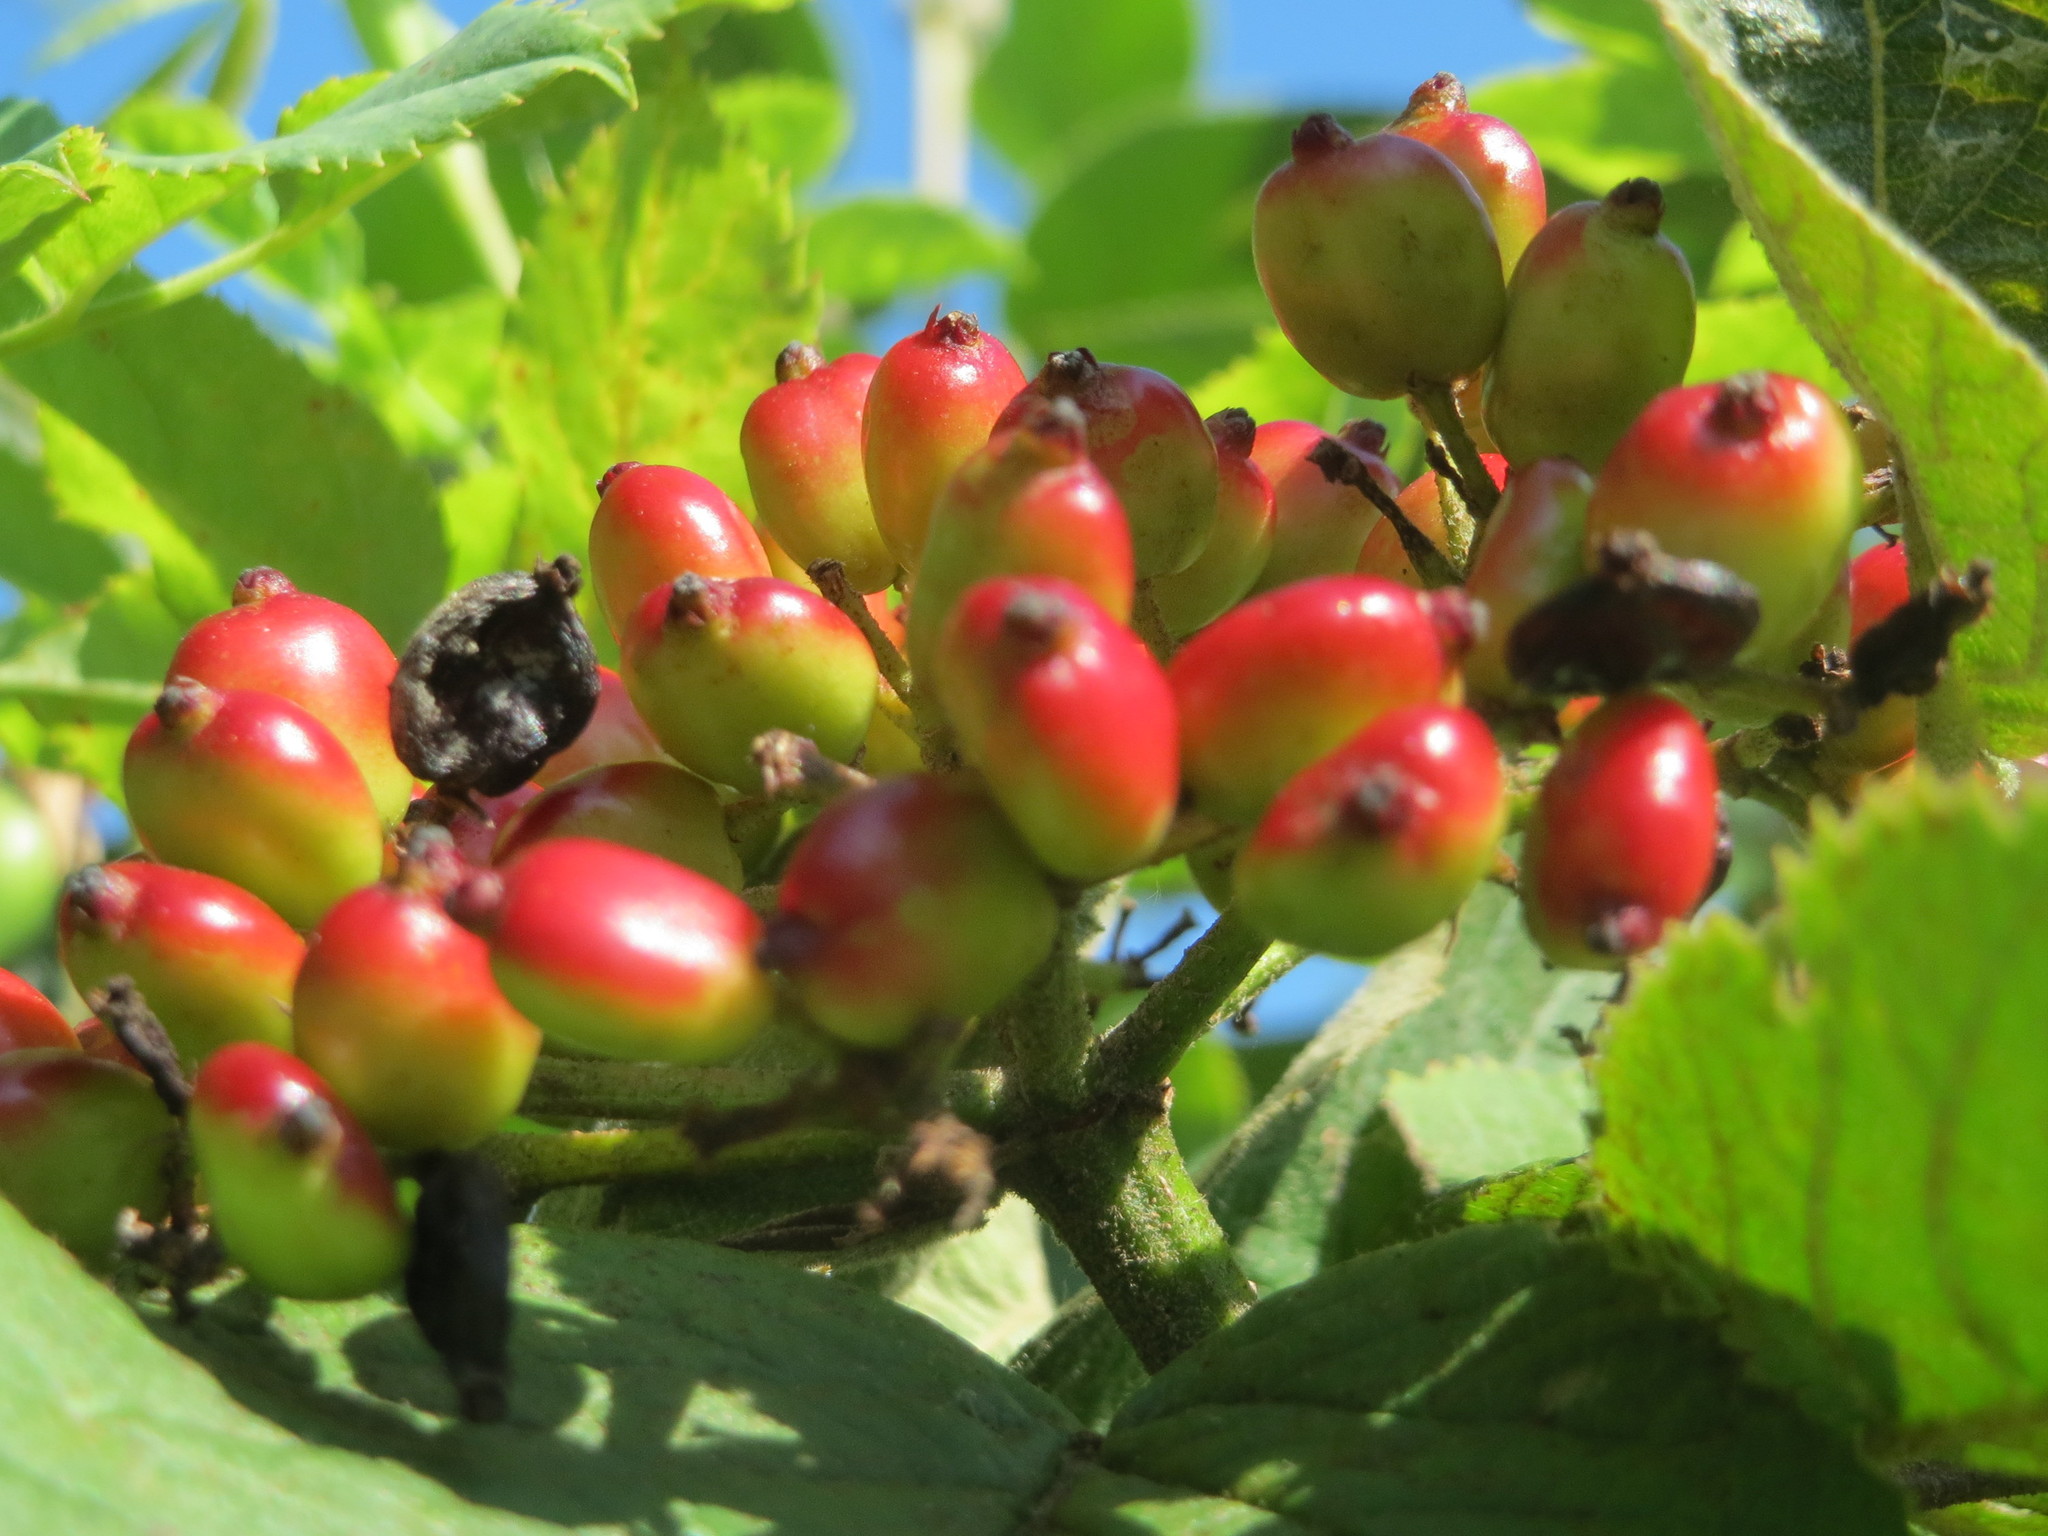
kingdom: Plantae
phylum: Tracheophyta
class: Magnoliopsida
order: Dipsacales
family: Viburnaceae
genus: Viburnum
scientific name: Viburnum lantana
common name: Wayfaring tree
